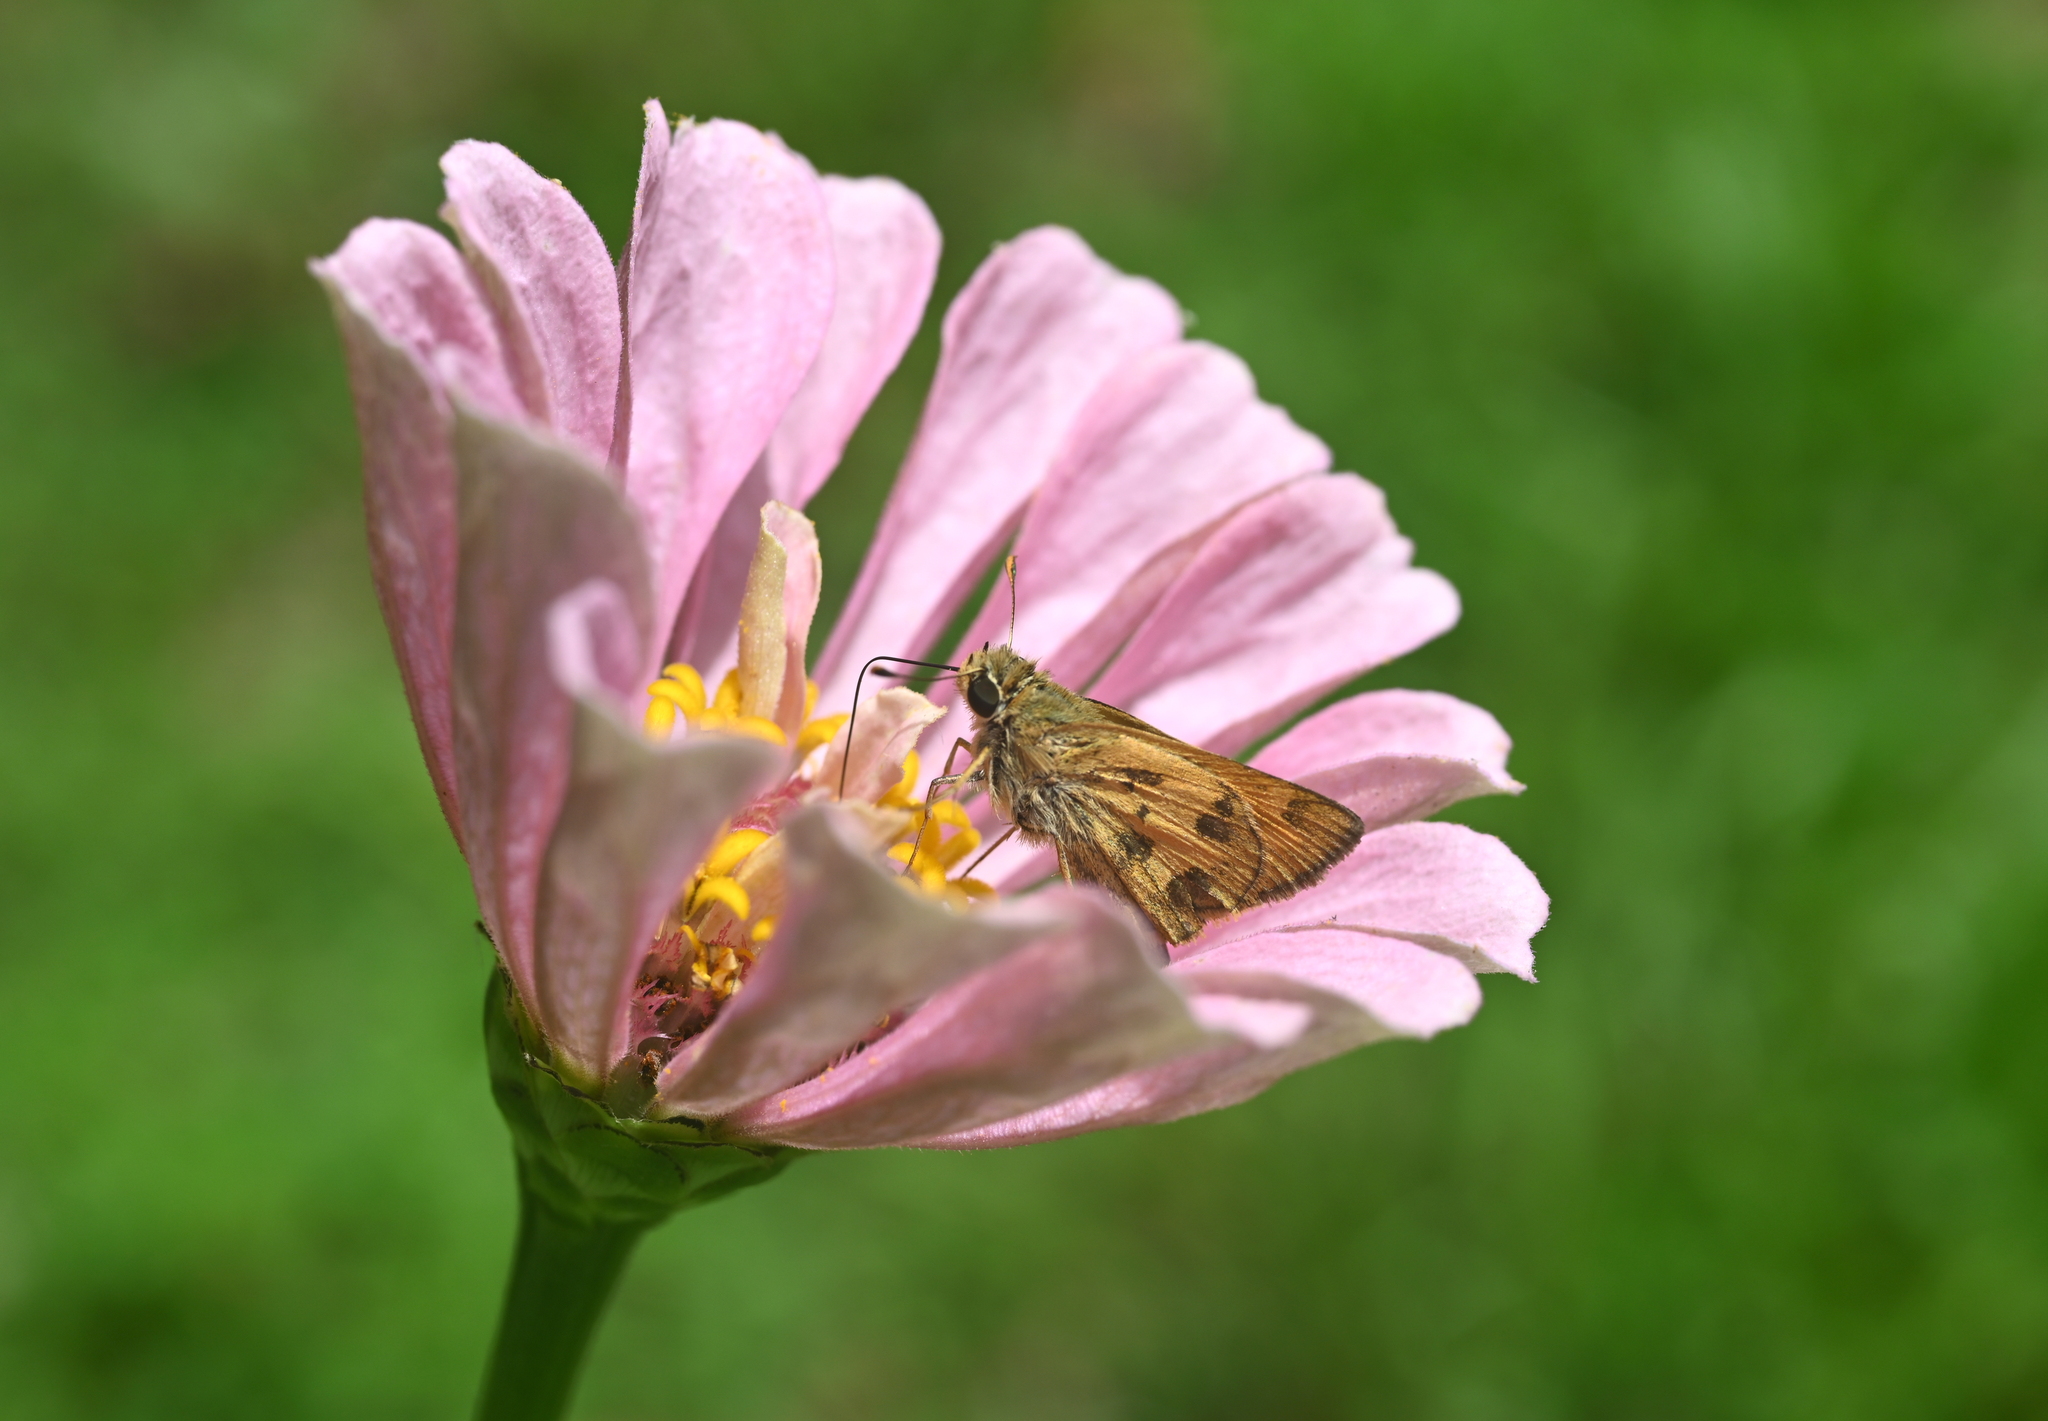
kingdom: Animalia
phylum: Arthropoda
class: Insecta
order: Lepidoptera
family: Hesperiidae
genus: Polites
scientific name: Polites vibex
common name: Whirlabout
